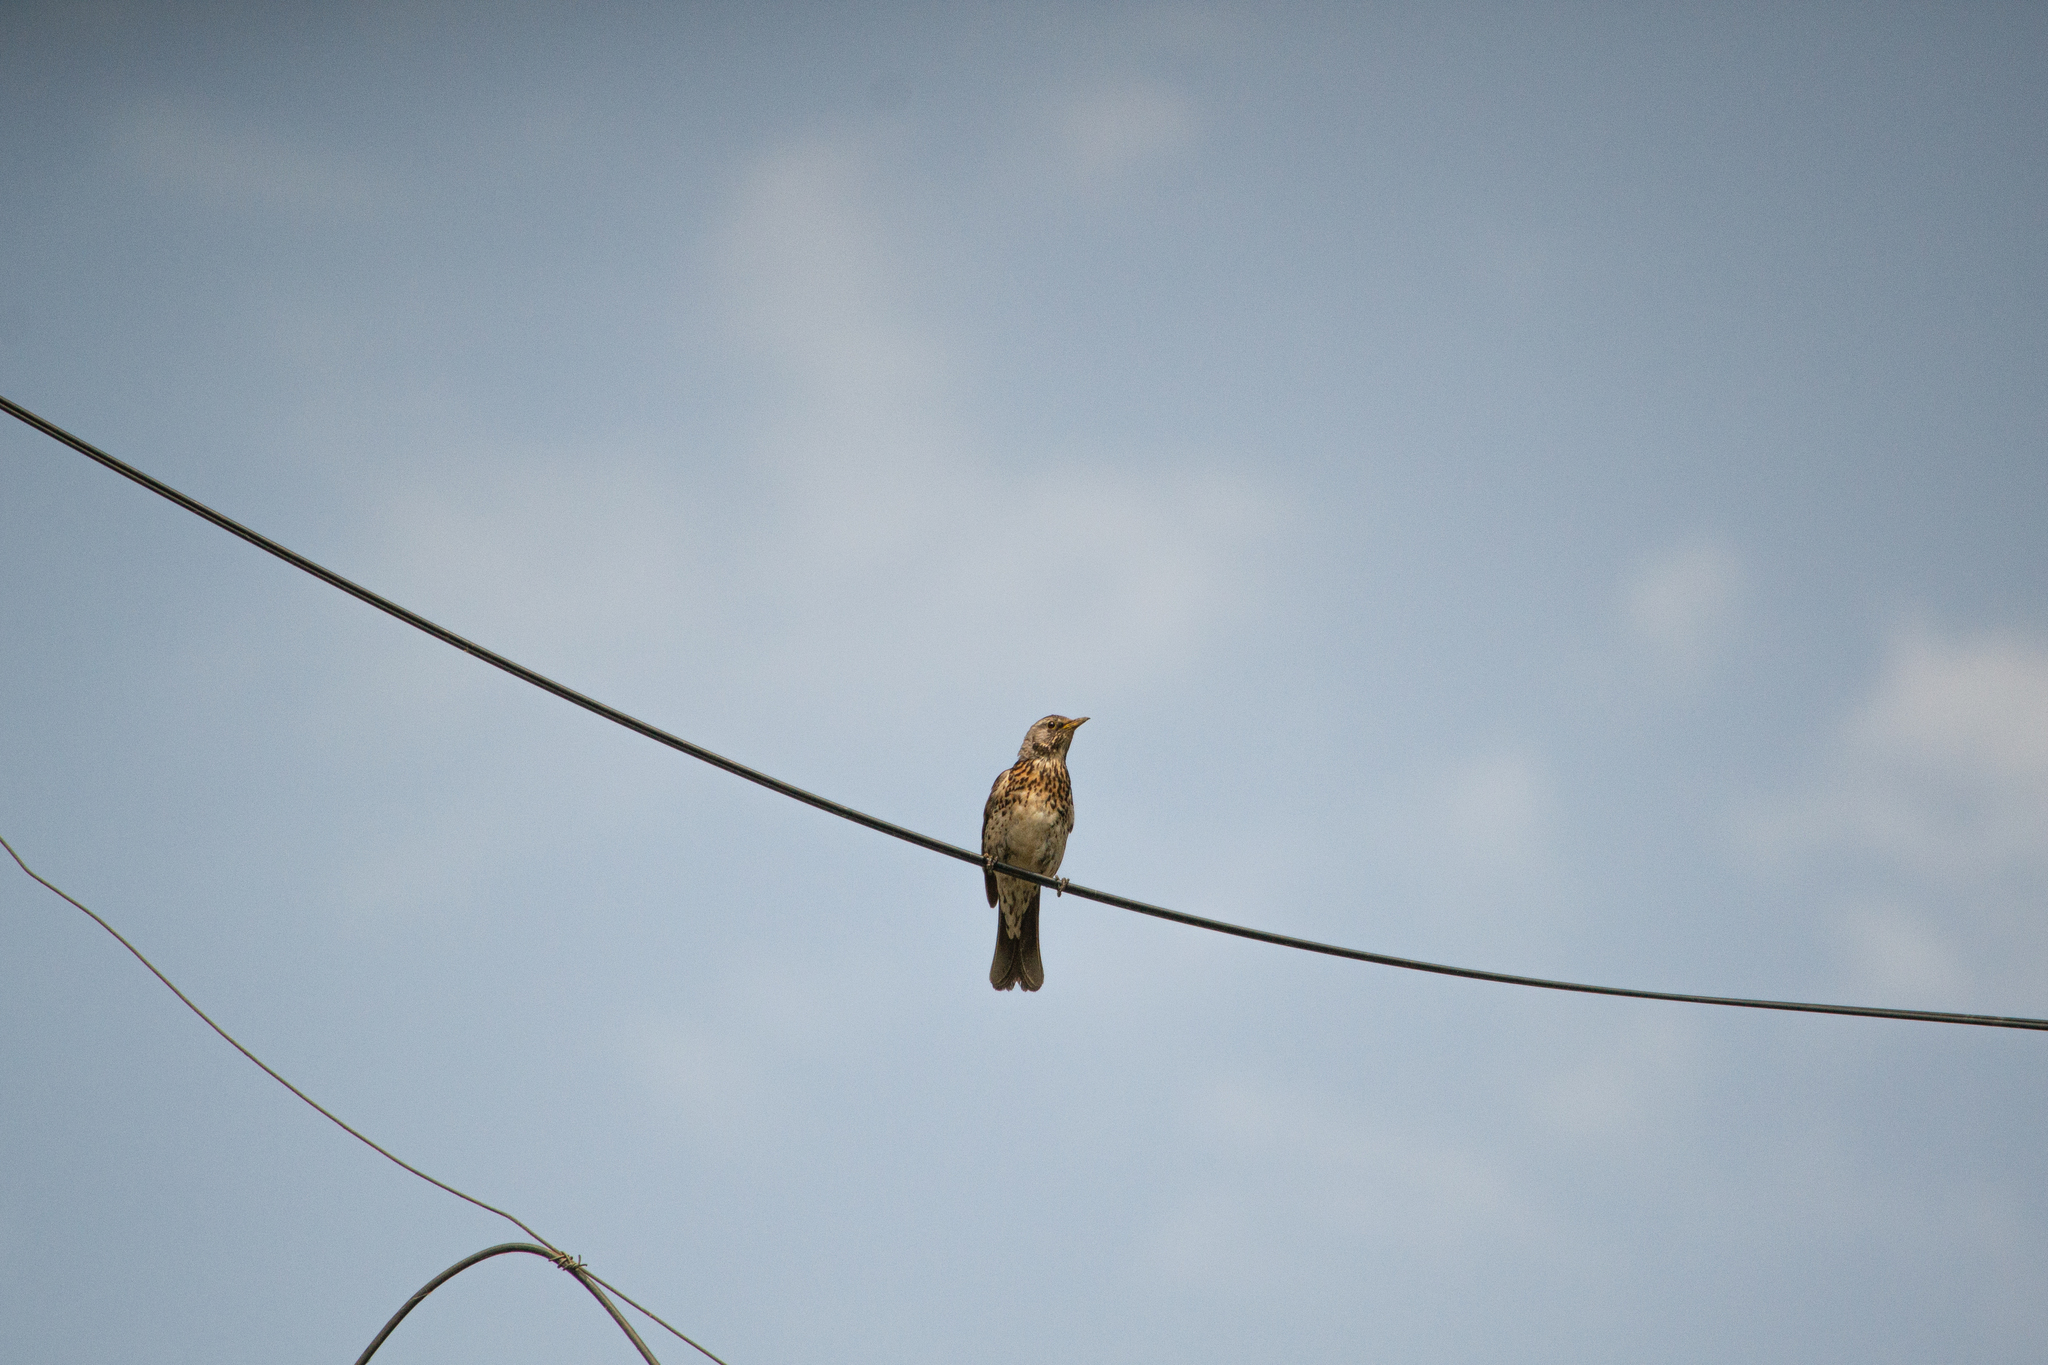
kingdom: Animalia
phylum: Chordata
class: Aves
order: Passeriformes
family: Turdidae
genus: Turdus
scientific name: Turdus pilaris
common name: Fieldfare
